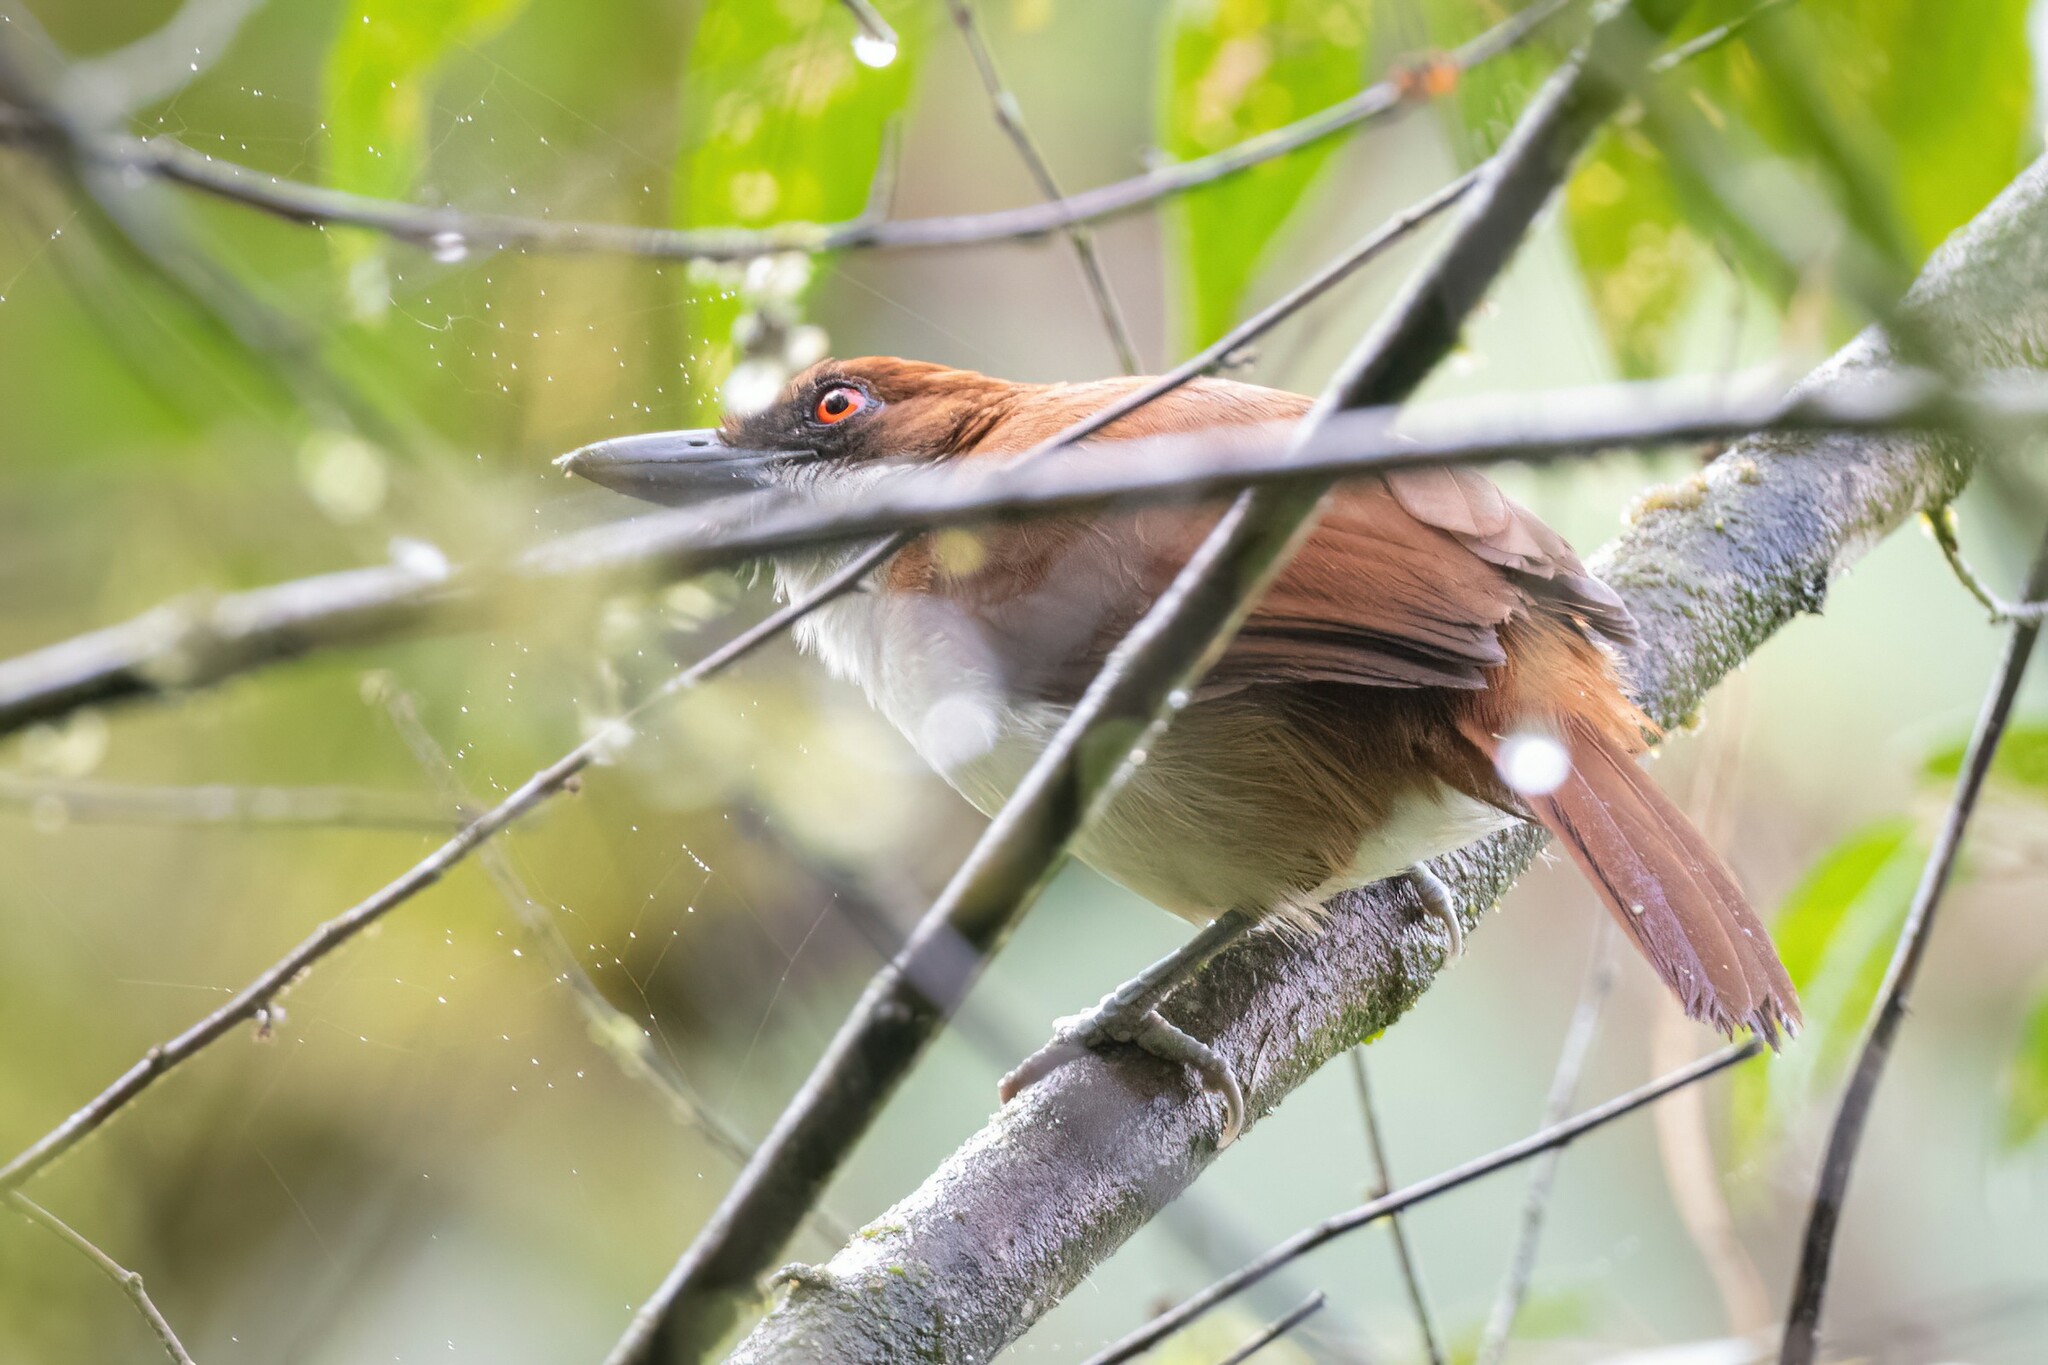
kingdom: Animalia
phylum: Chordata
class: Aves
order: Passeriformes
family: Thamnophilidae
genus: Taraba
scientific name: Taraba major
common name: Great antshrike
